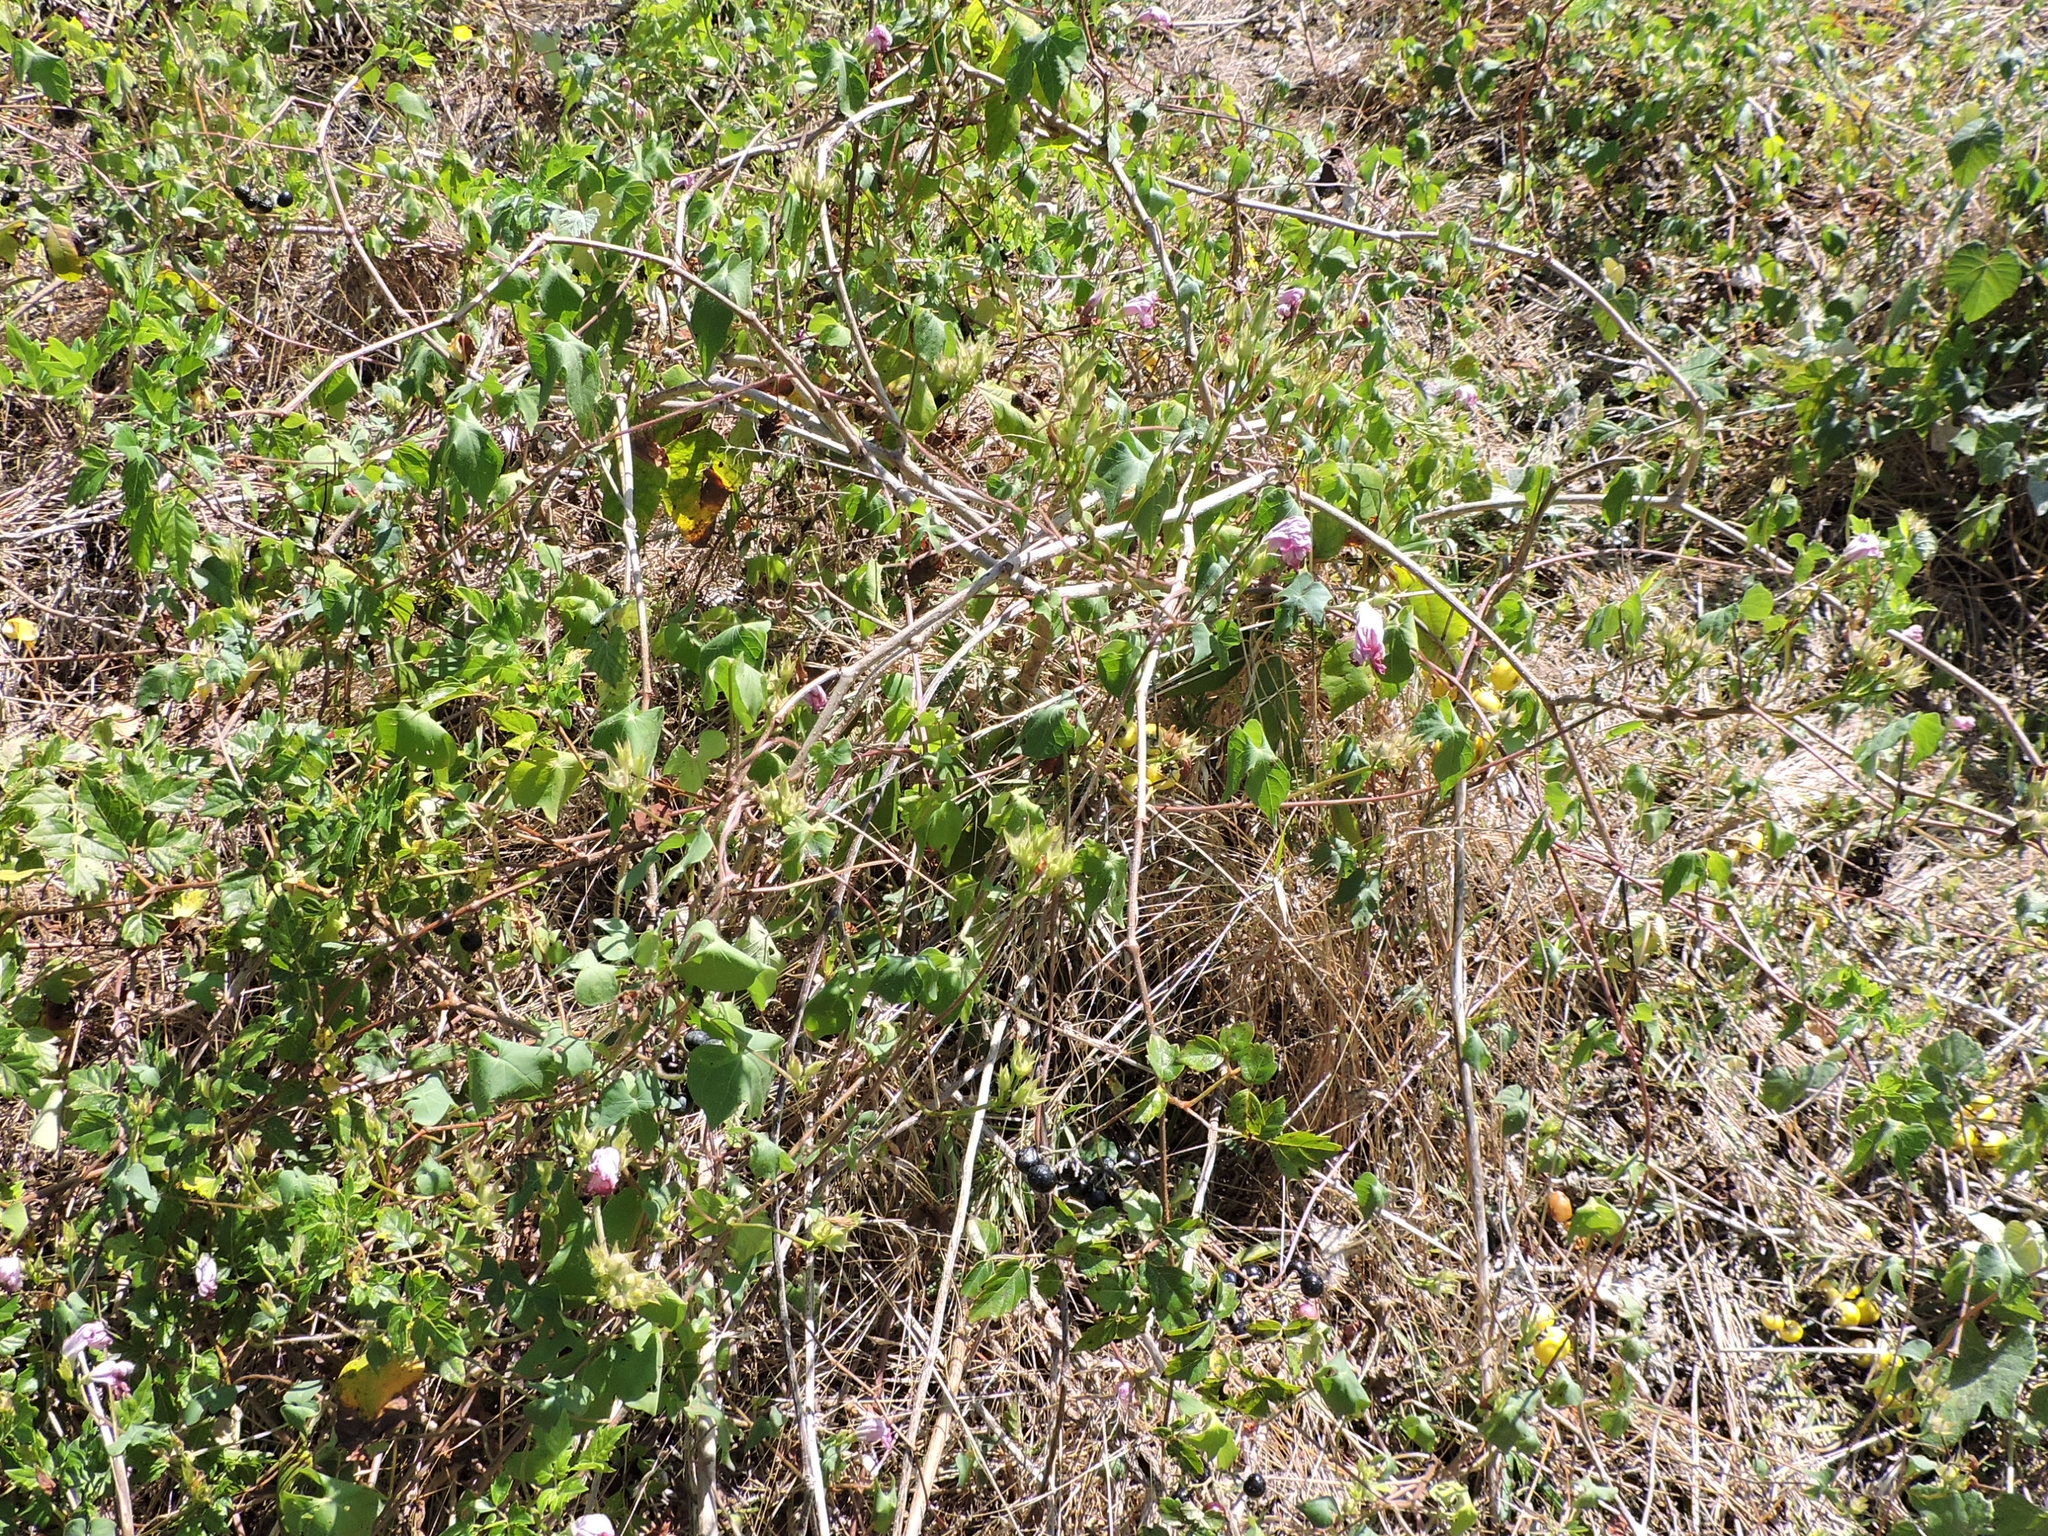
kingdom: Plantae
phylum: Tracheophyta
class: Magnoliopsida
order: Vitales
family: Vitaceae
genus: Nekemias
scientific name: Nekemias arborea
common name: Peppervine
